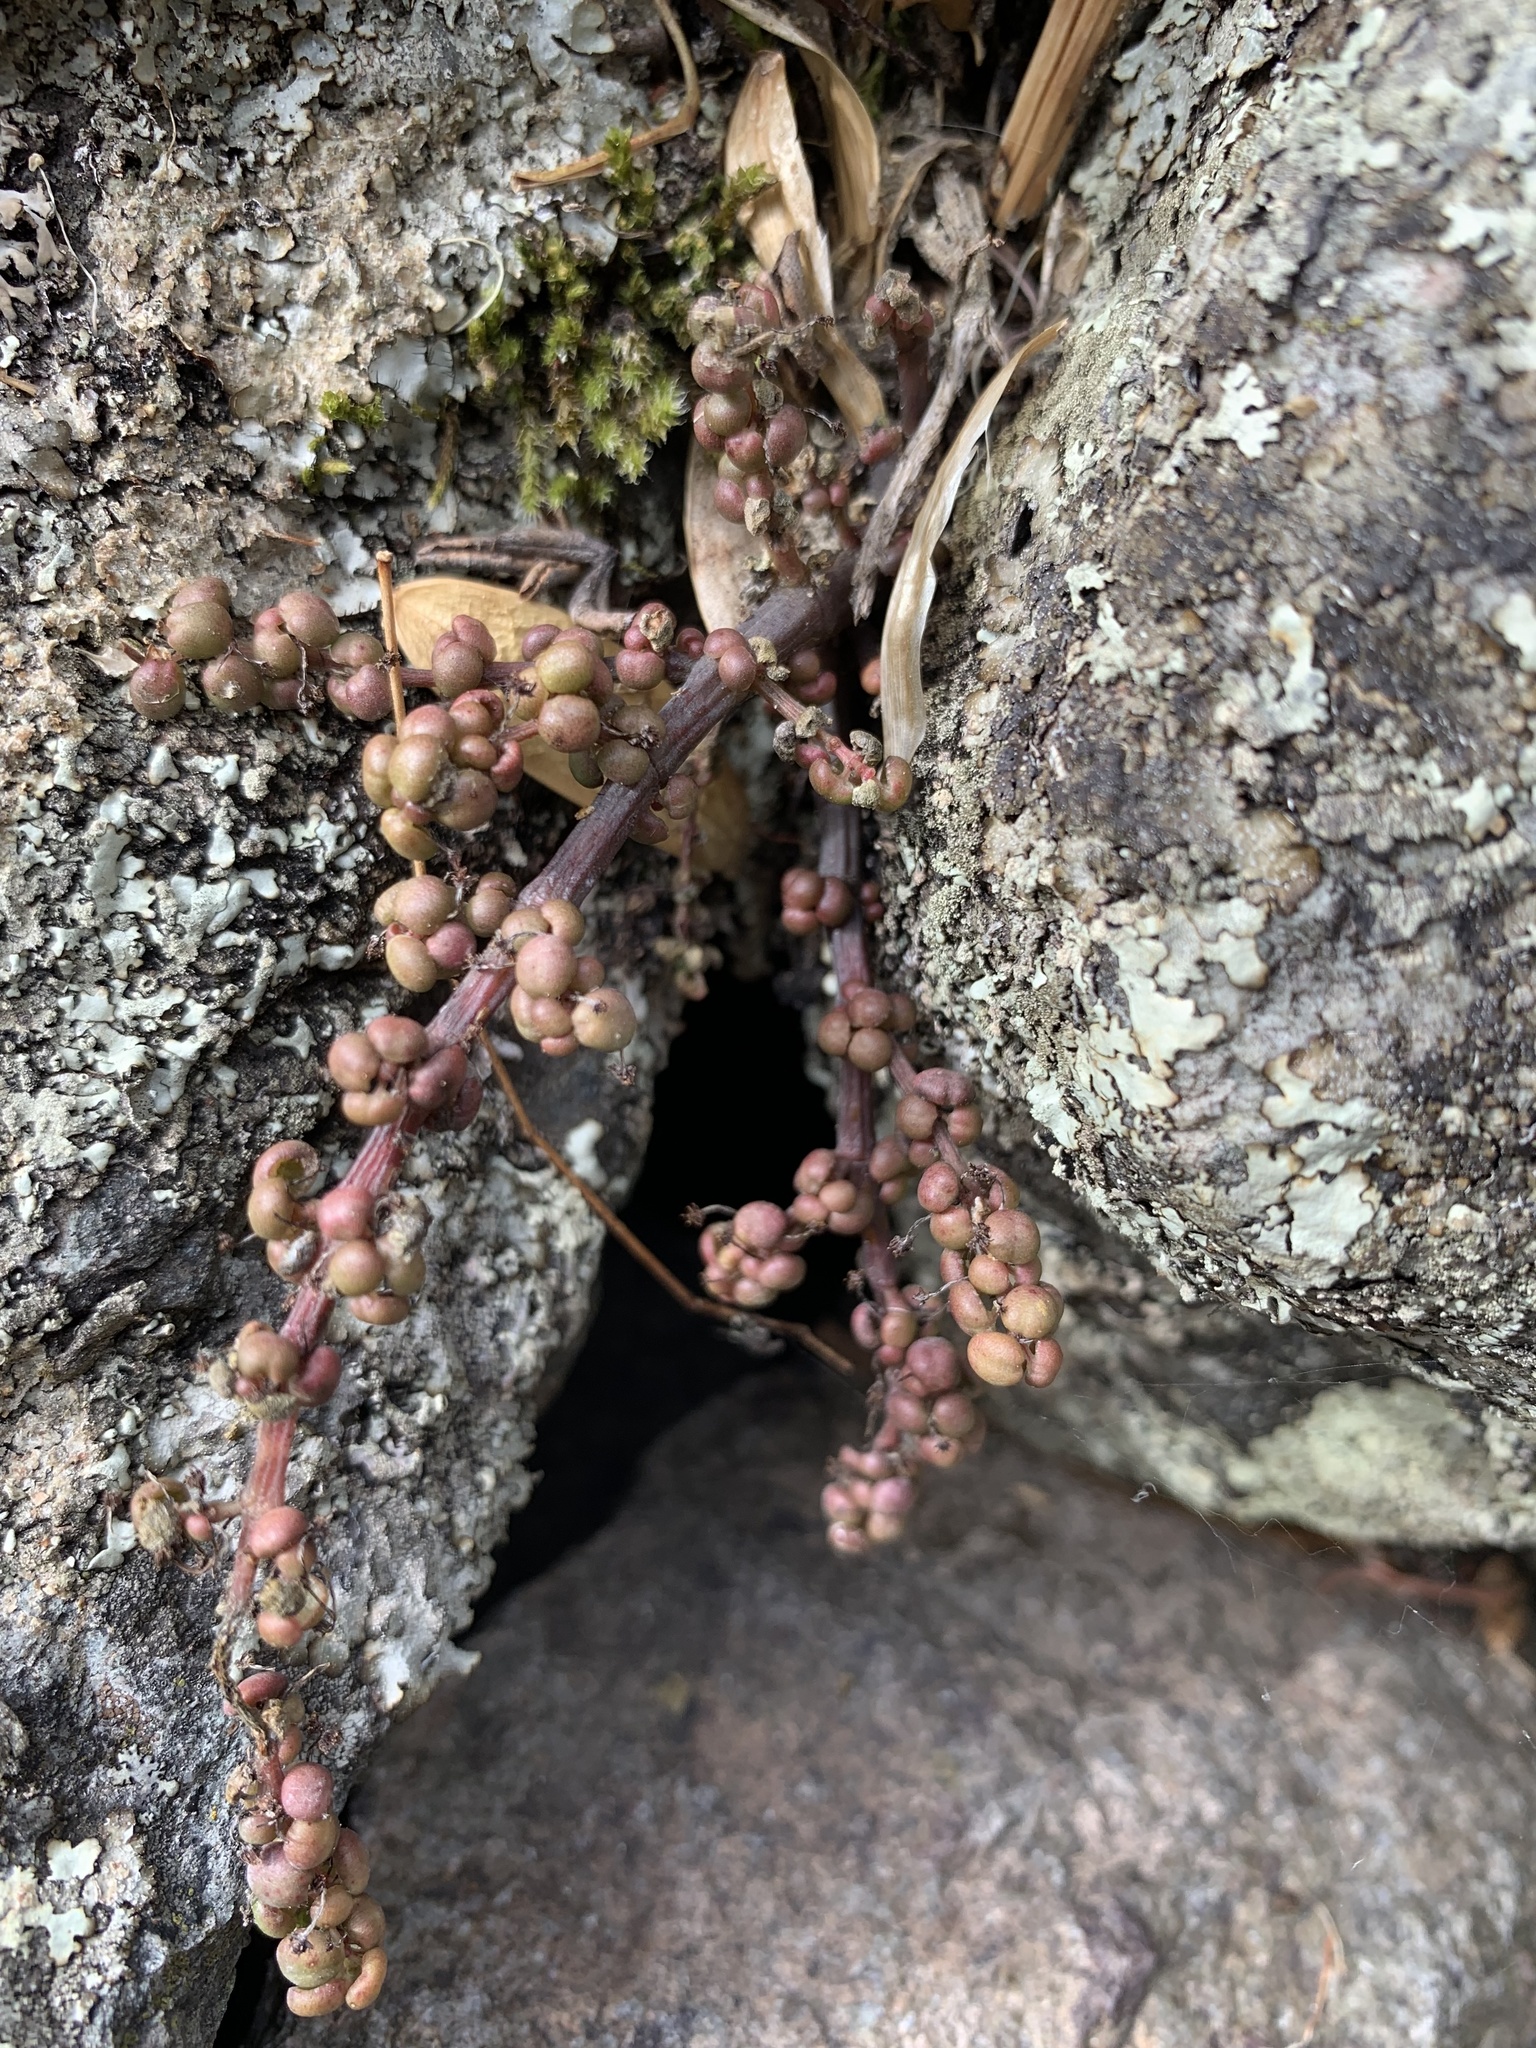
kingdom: Plantae
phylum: Tracheophyta
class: Magnoliopsida
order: Rosales
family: Urticaceae
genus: Pilea
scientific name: Pilea serpyllacea
